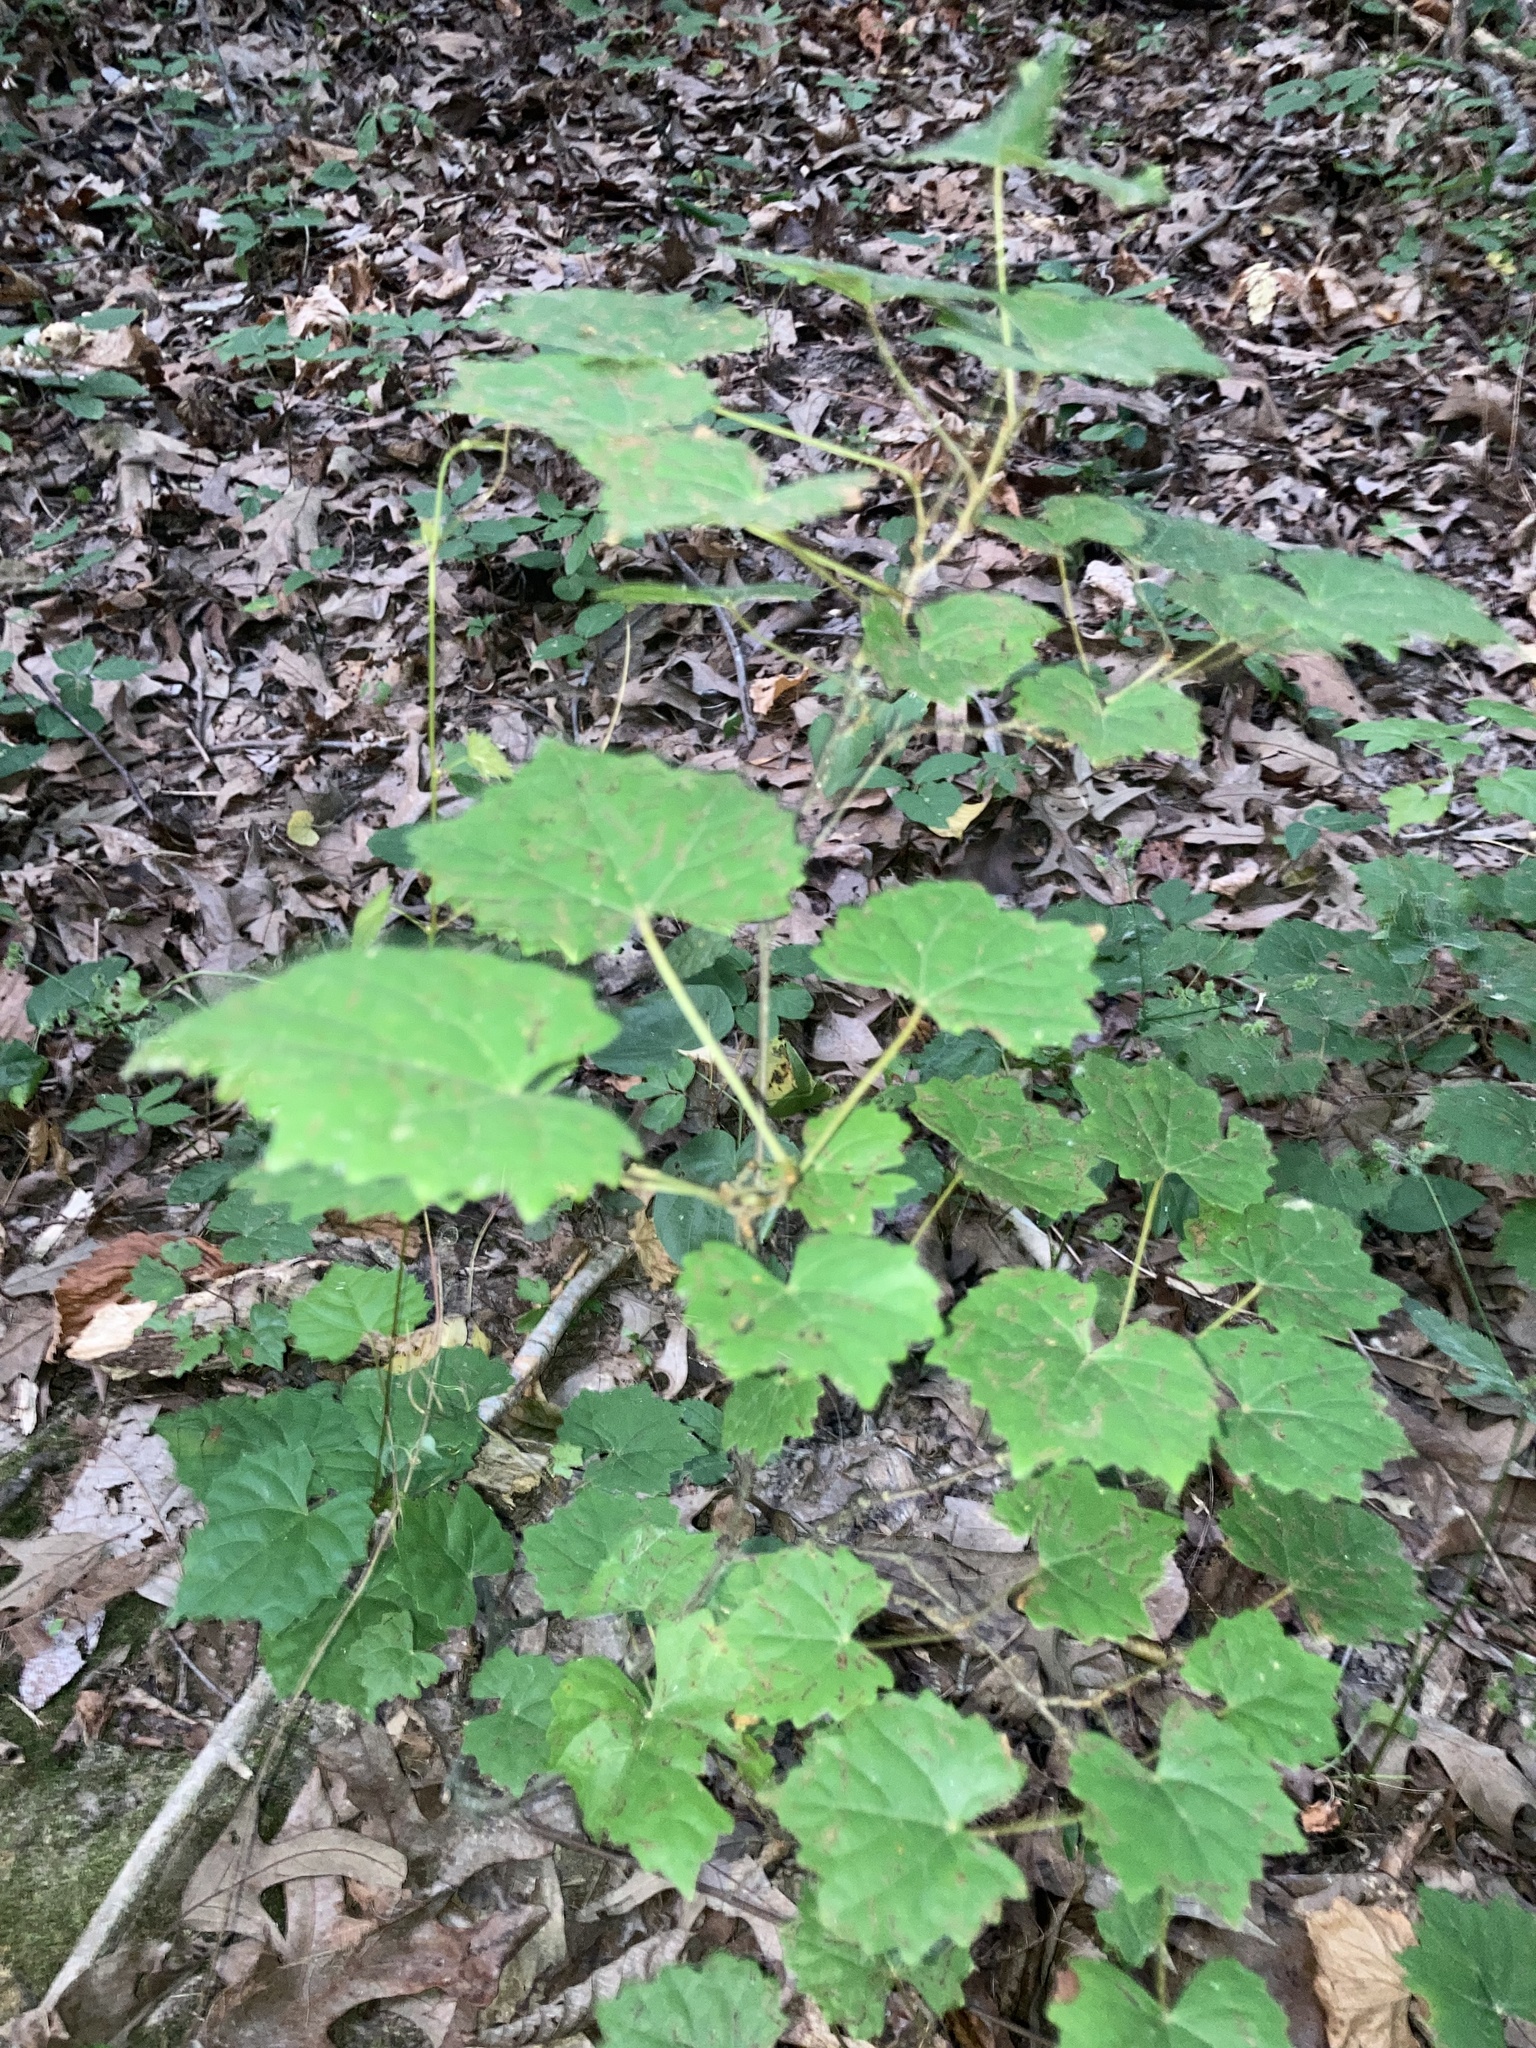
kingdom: Plantae
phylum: Tracheophyta
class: Magnoliopsida
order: Vitales
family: Vitaceae
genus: Vitis
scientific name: Vitis rotundifolia
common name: Muscadine grape
